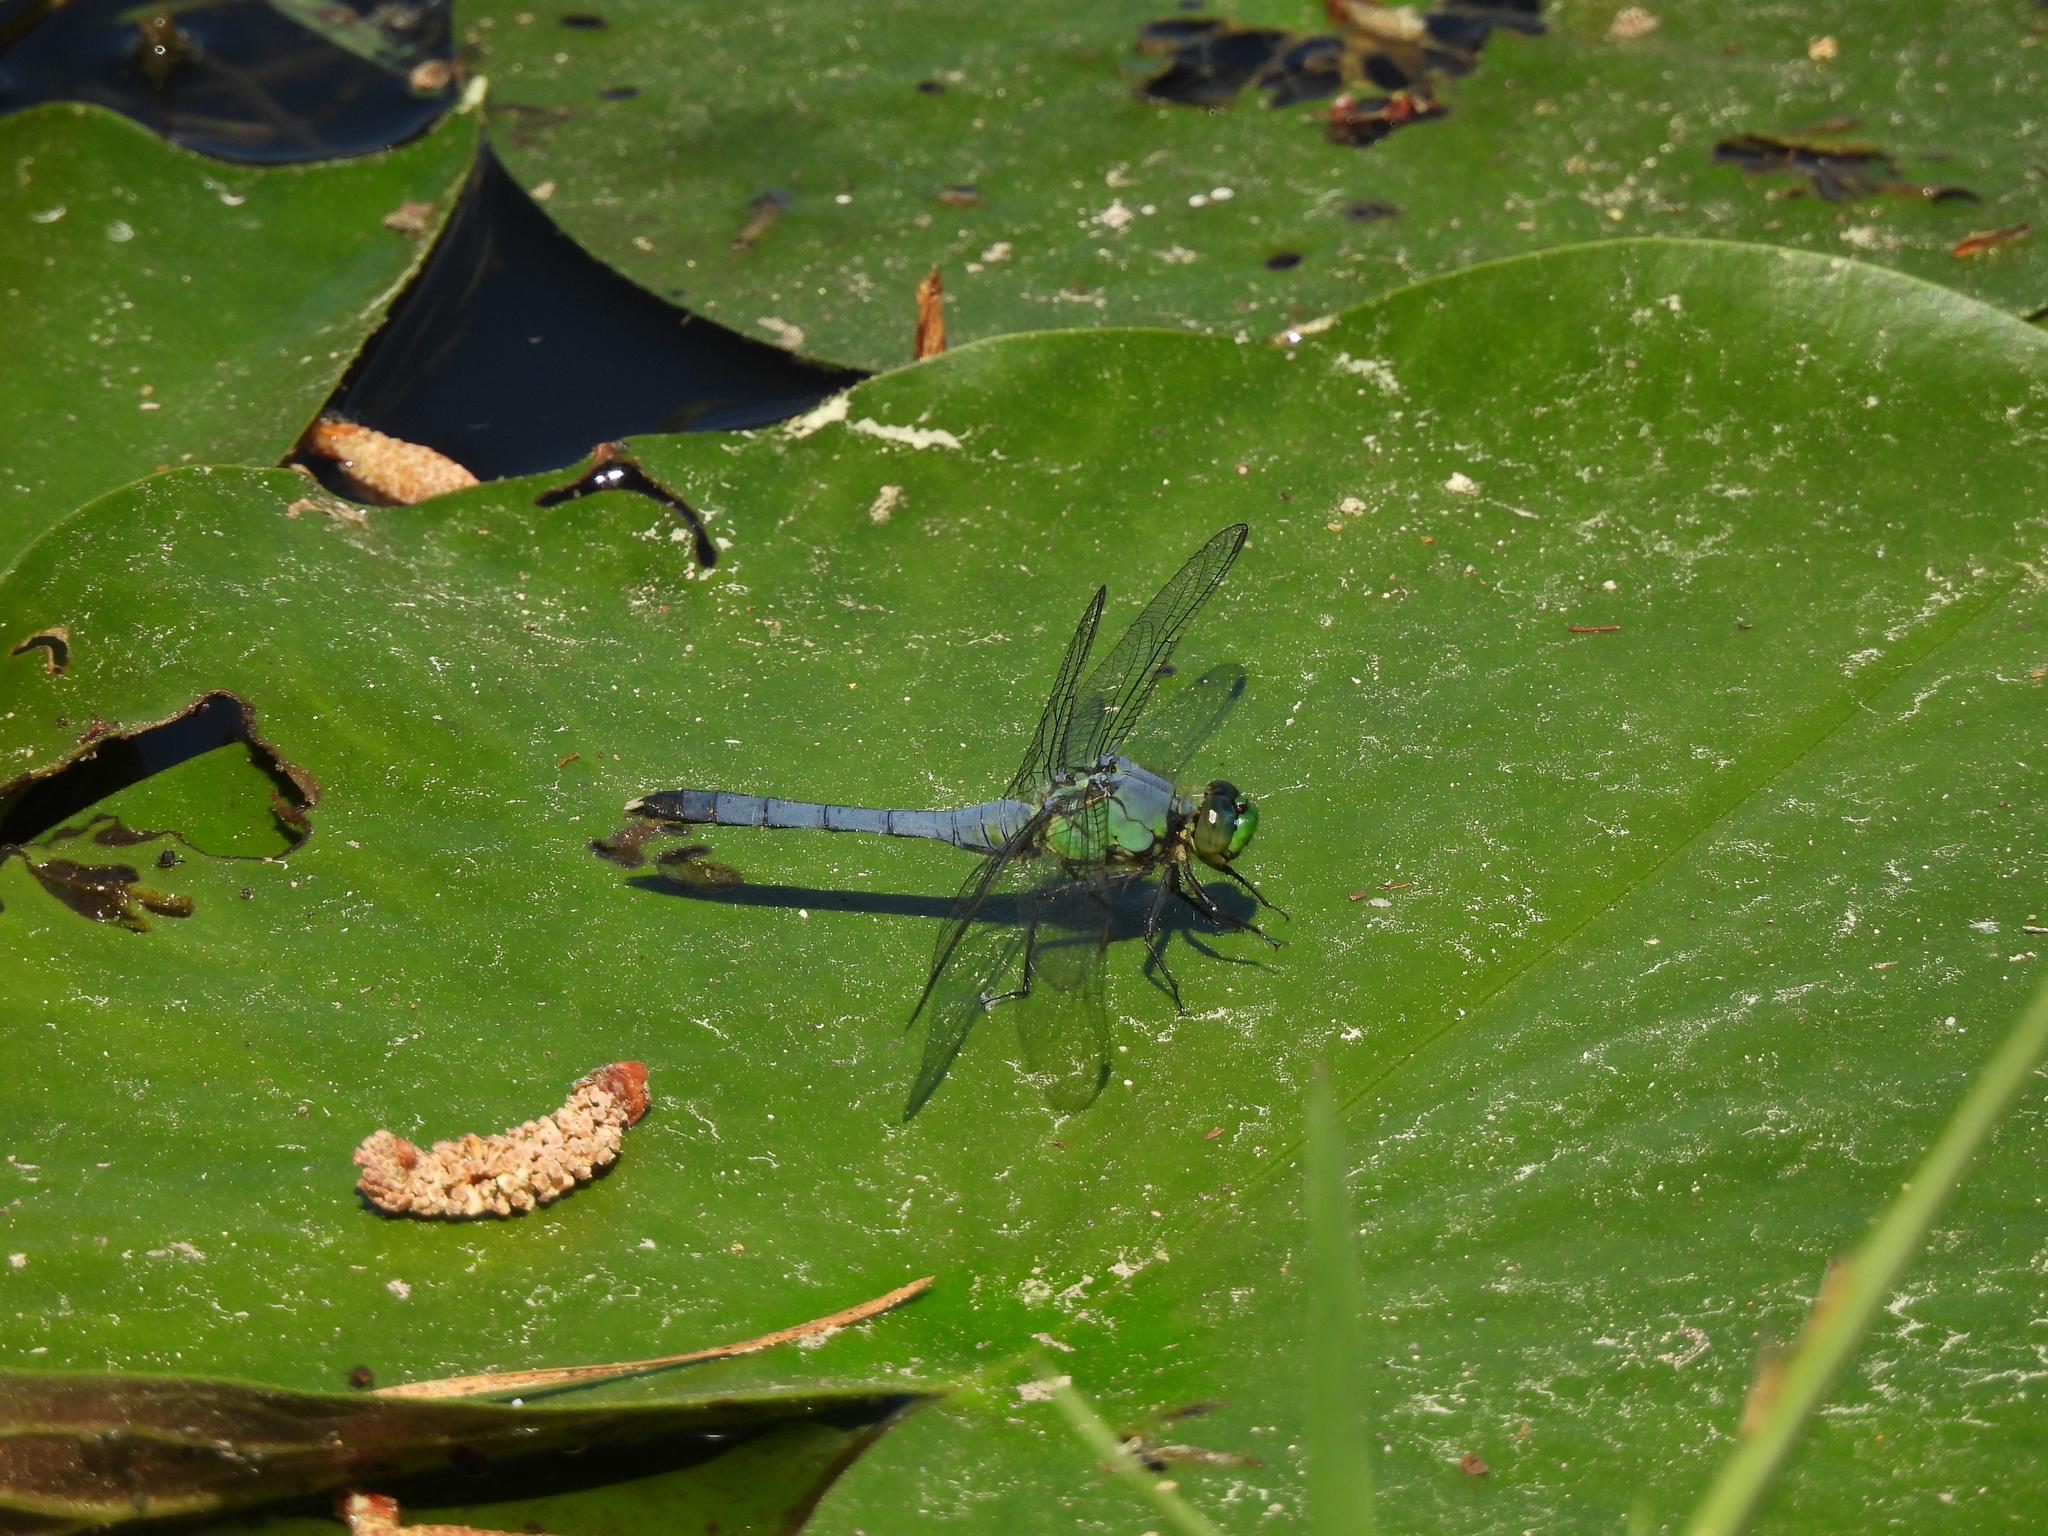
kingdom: Animalia
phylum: Arthropoda
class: Insecta
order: Odonata
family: Libellulidae
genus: Erythemis
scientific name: Erythemis simplicicollis
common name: Eastern pondhawk
